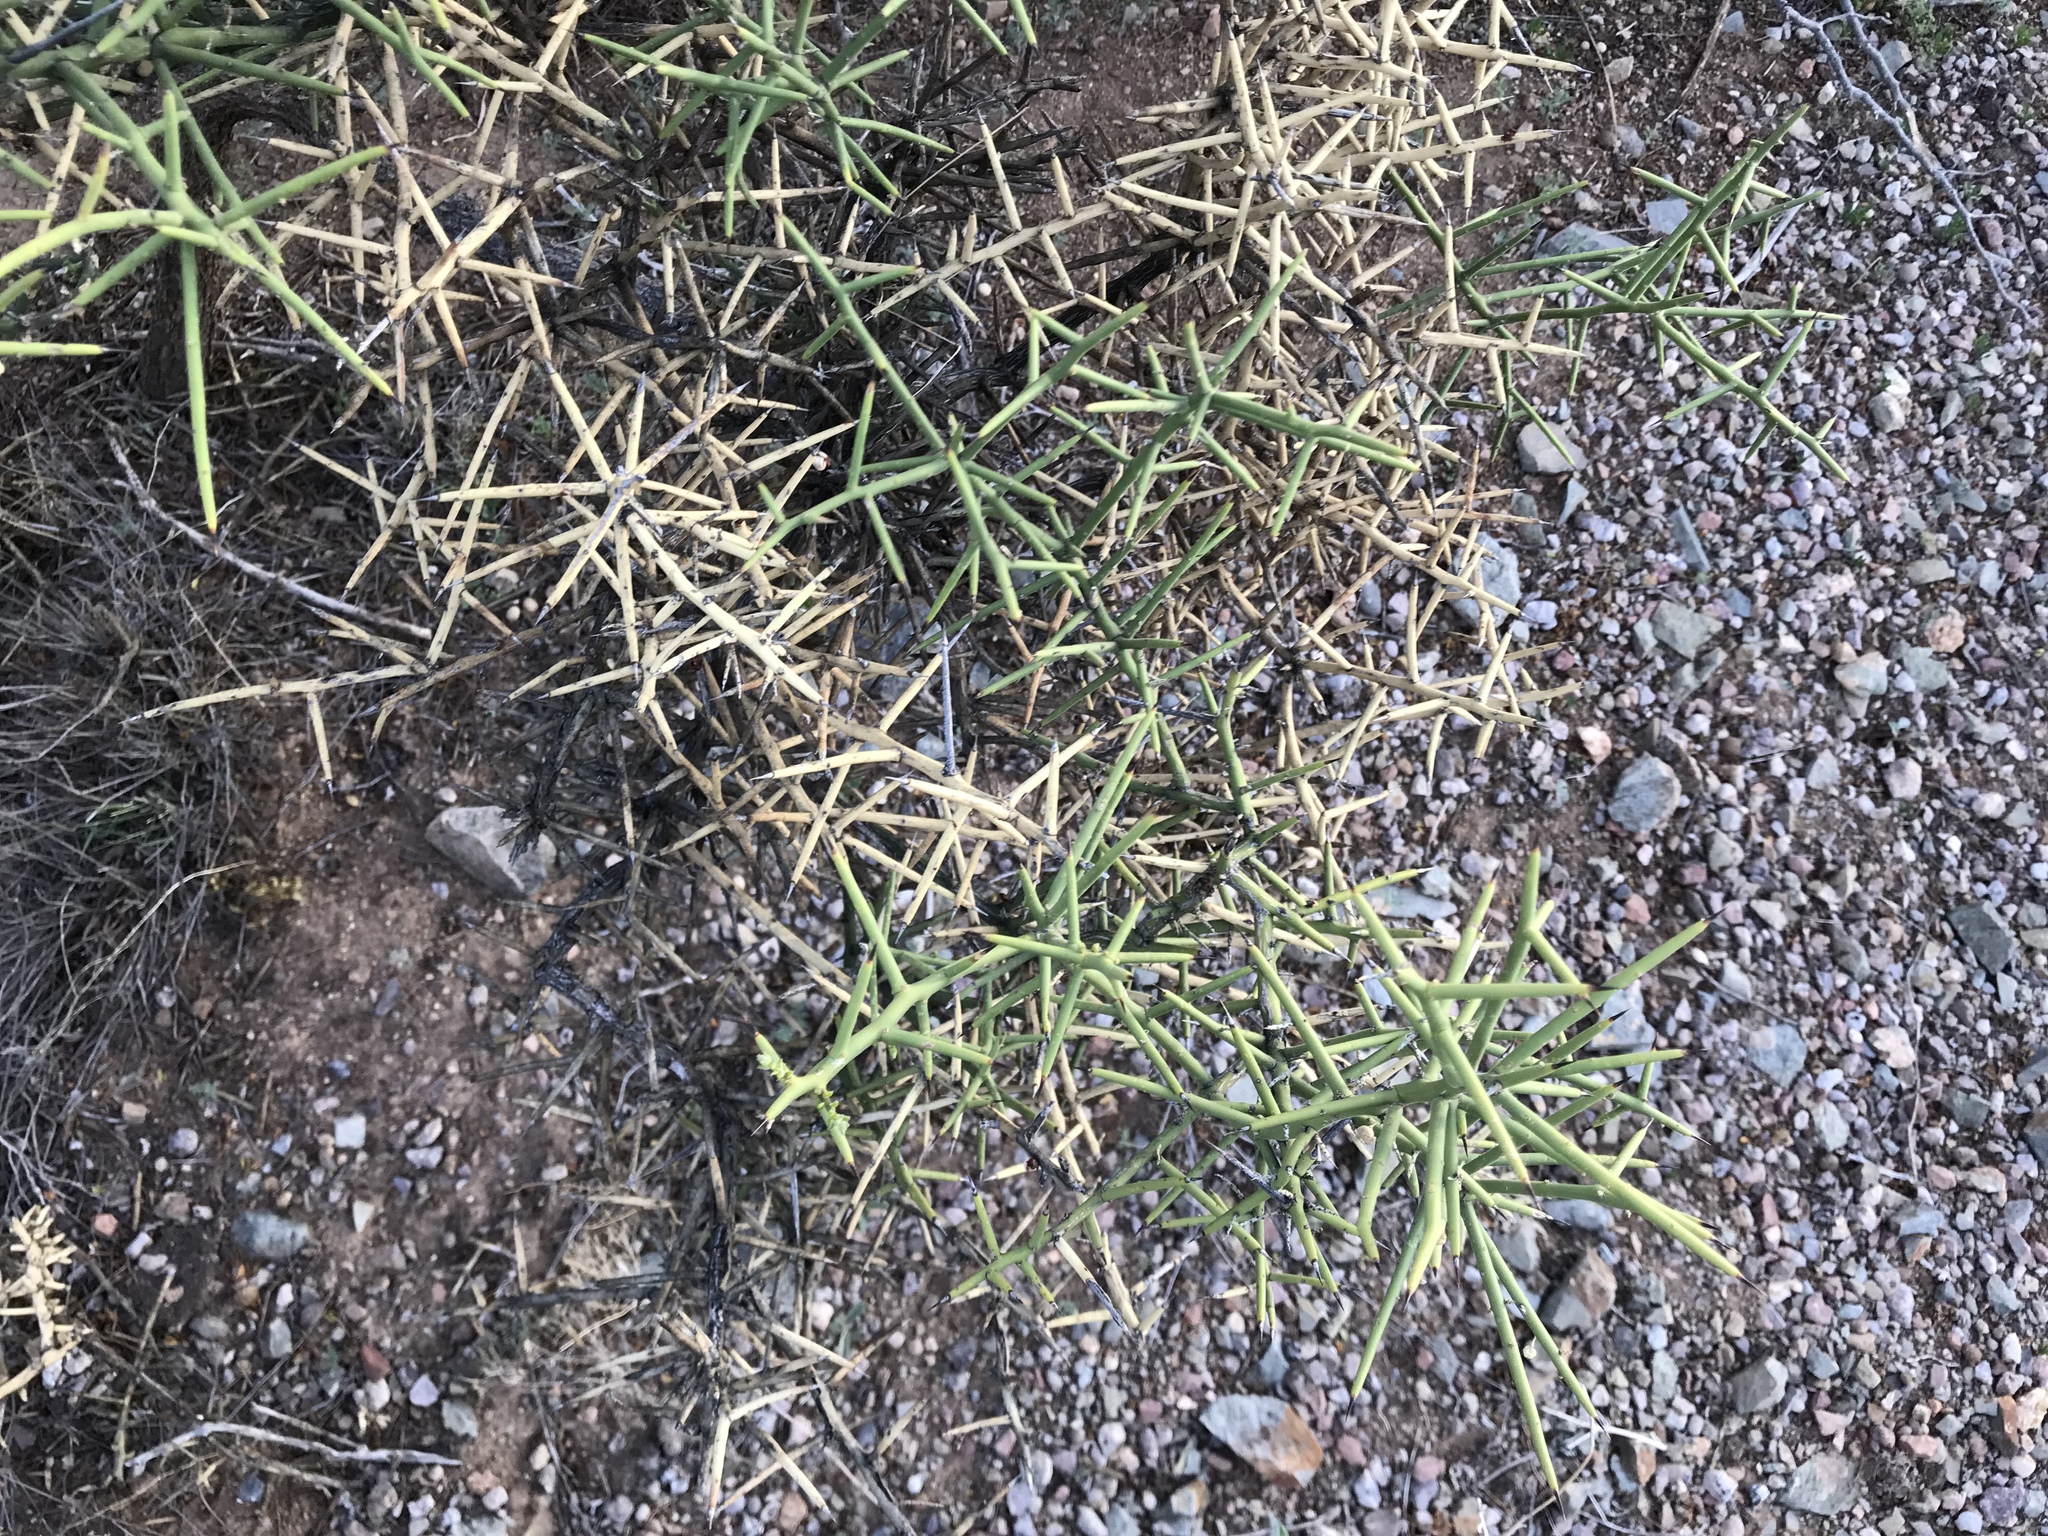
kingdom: Plantae
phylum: Tracheophyta
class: Magnoliopsida
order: Brassicales
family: Koeberliniaceae
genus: Koeberlinia
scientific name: Koeberlinia spinosa
